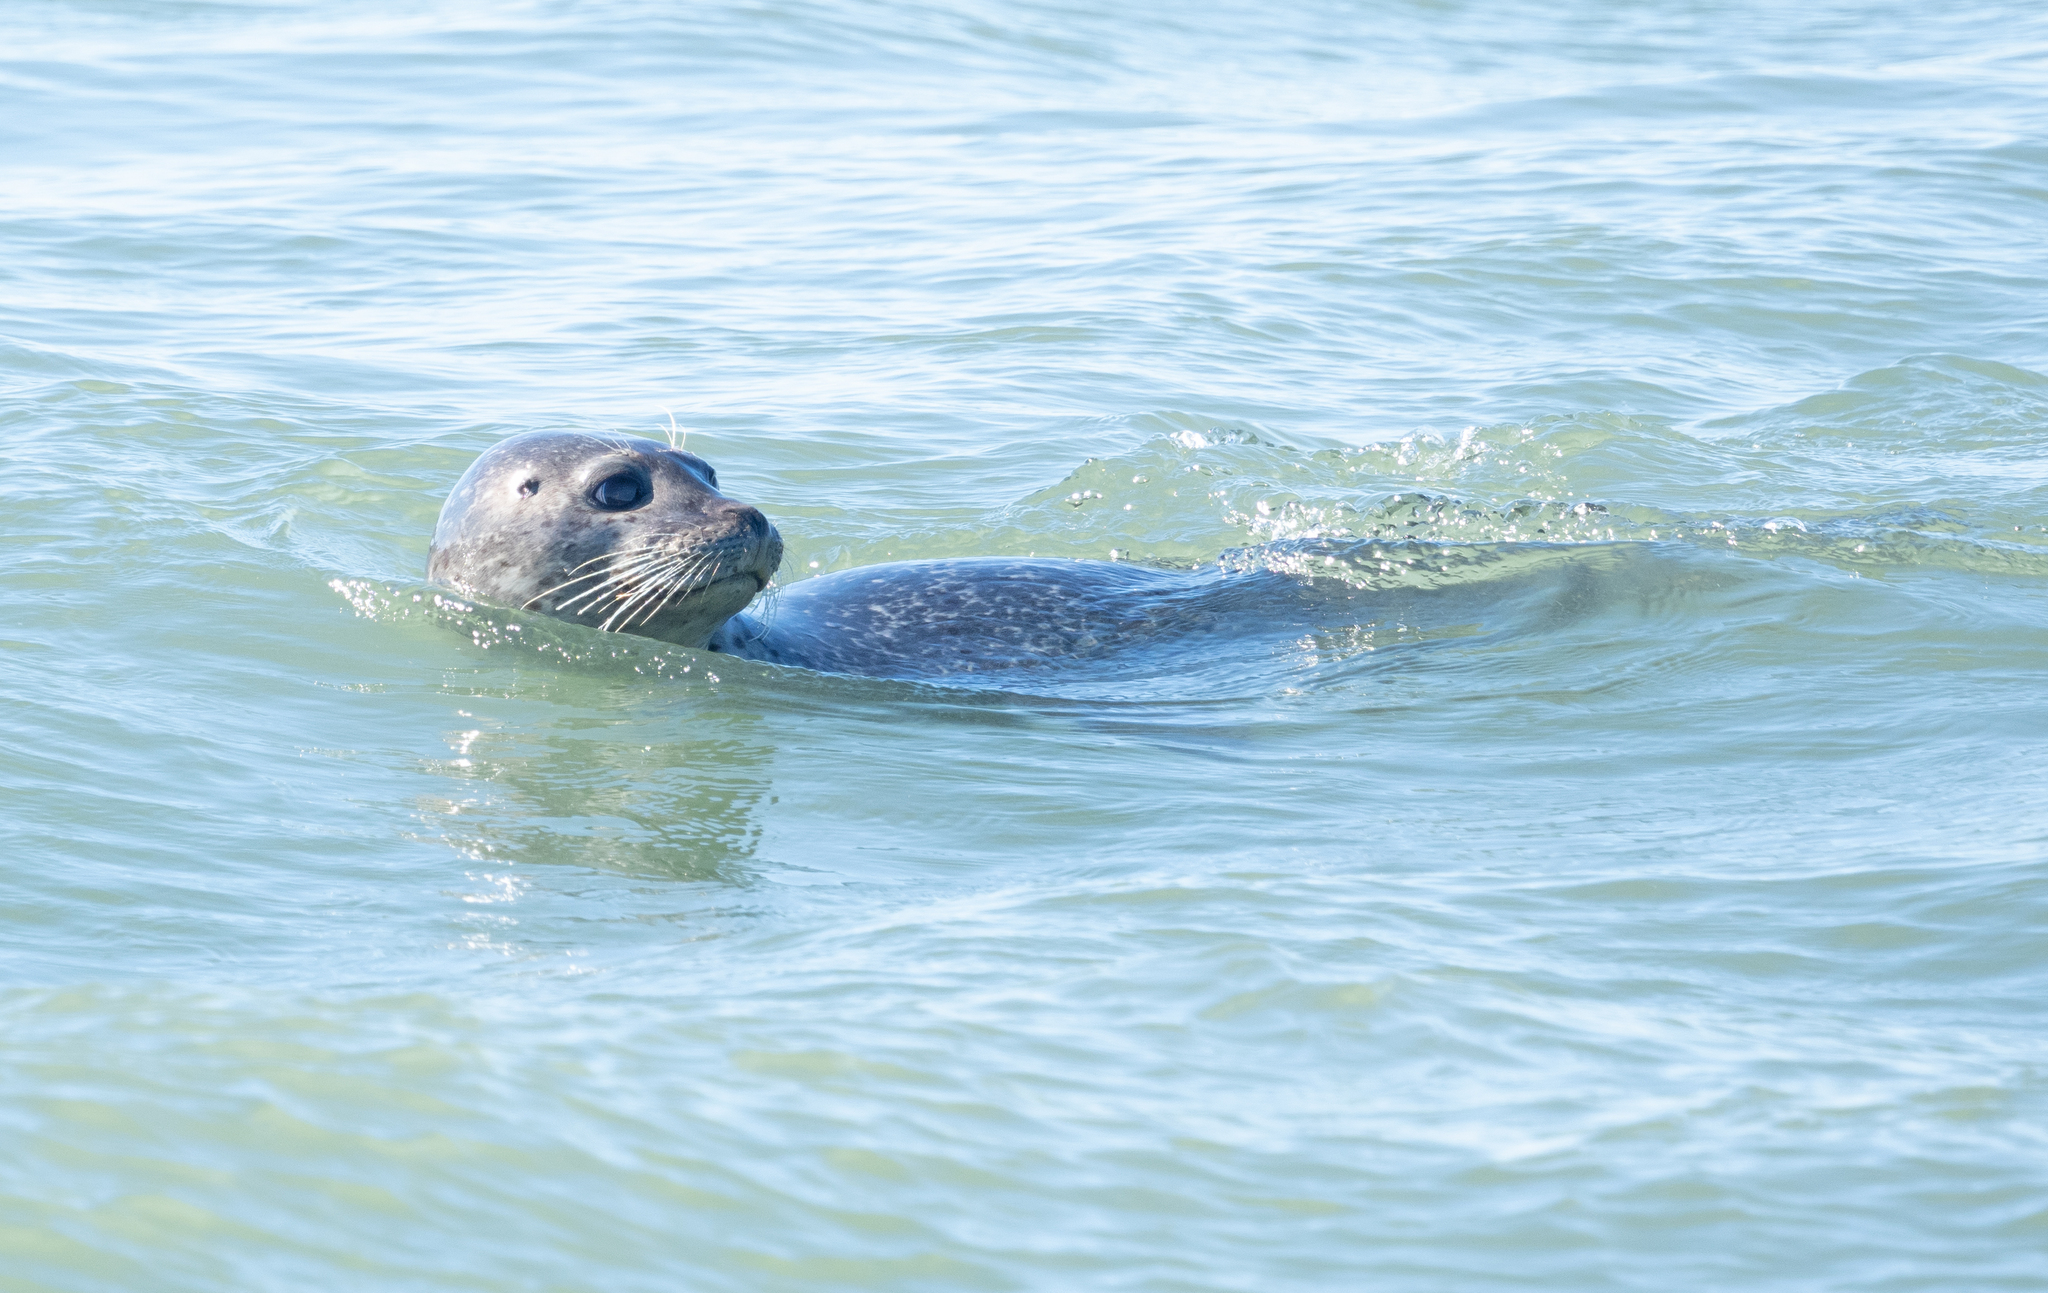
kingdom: Animalia
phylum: Chordata
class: Mammalia
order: Carnivora
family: Phocidae
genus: Phoca
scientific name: Phoca vitulina
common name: Harbor seal
